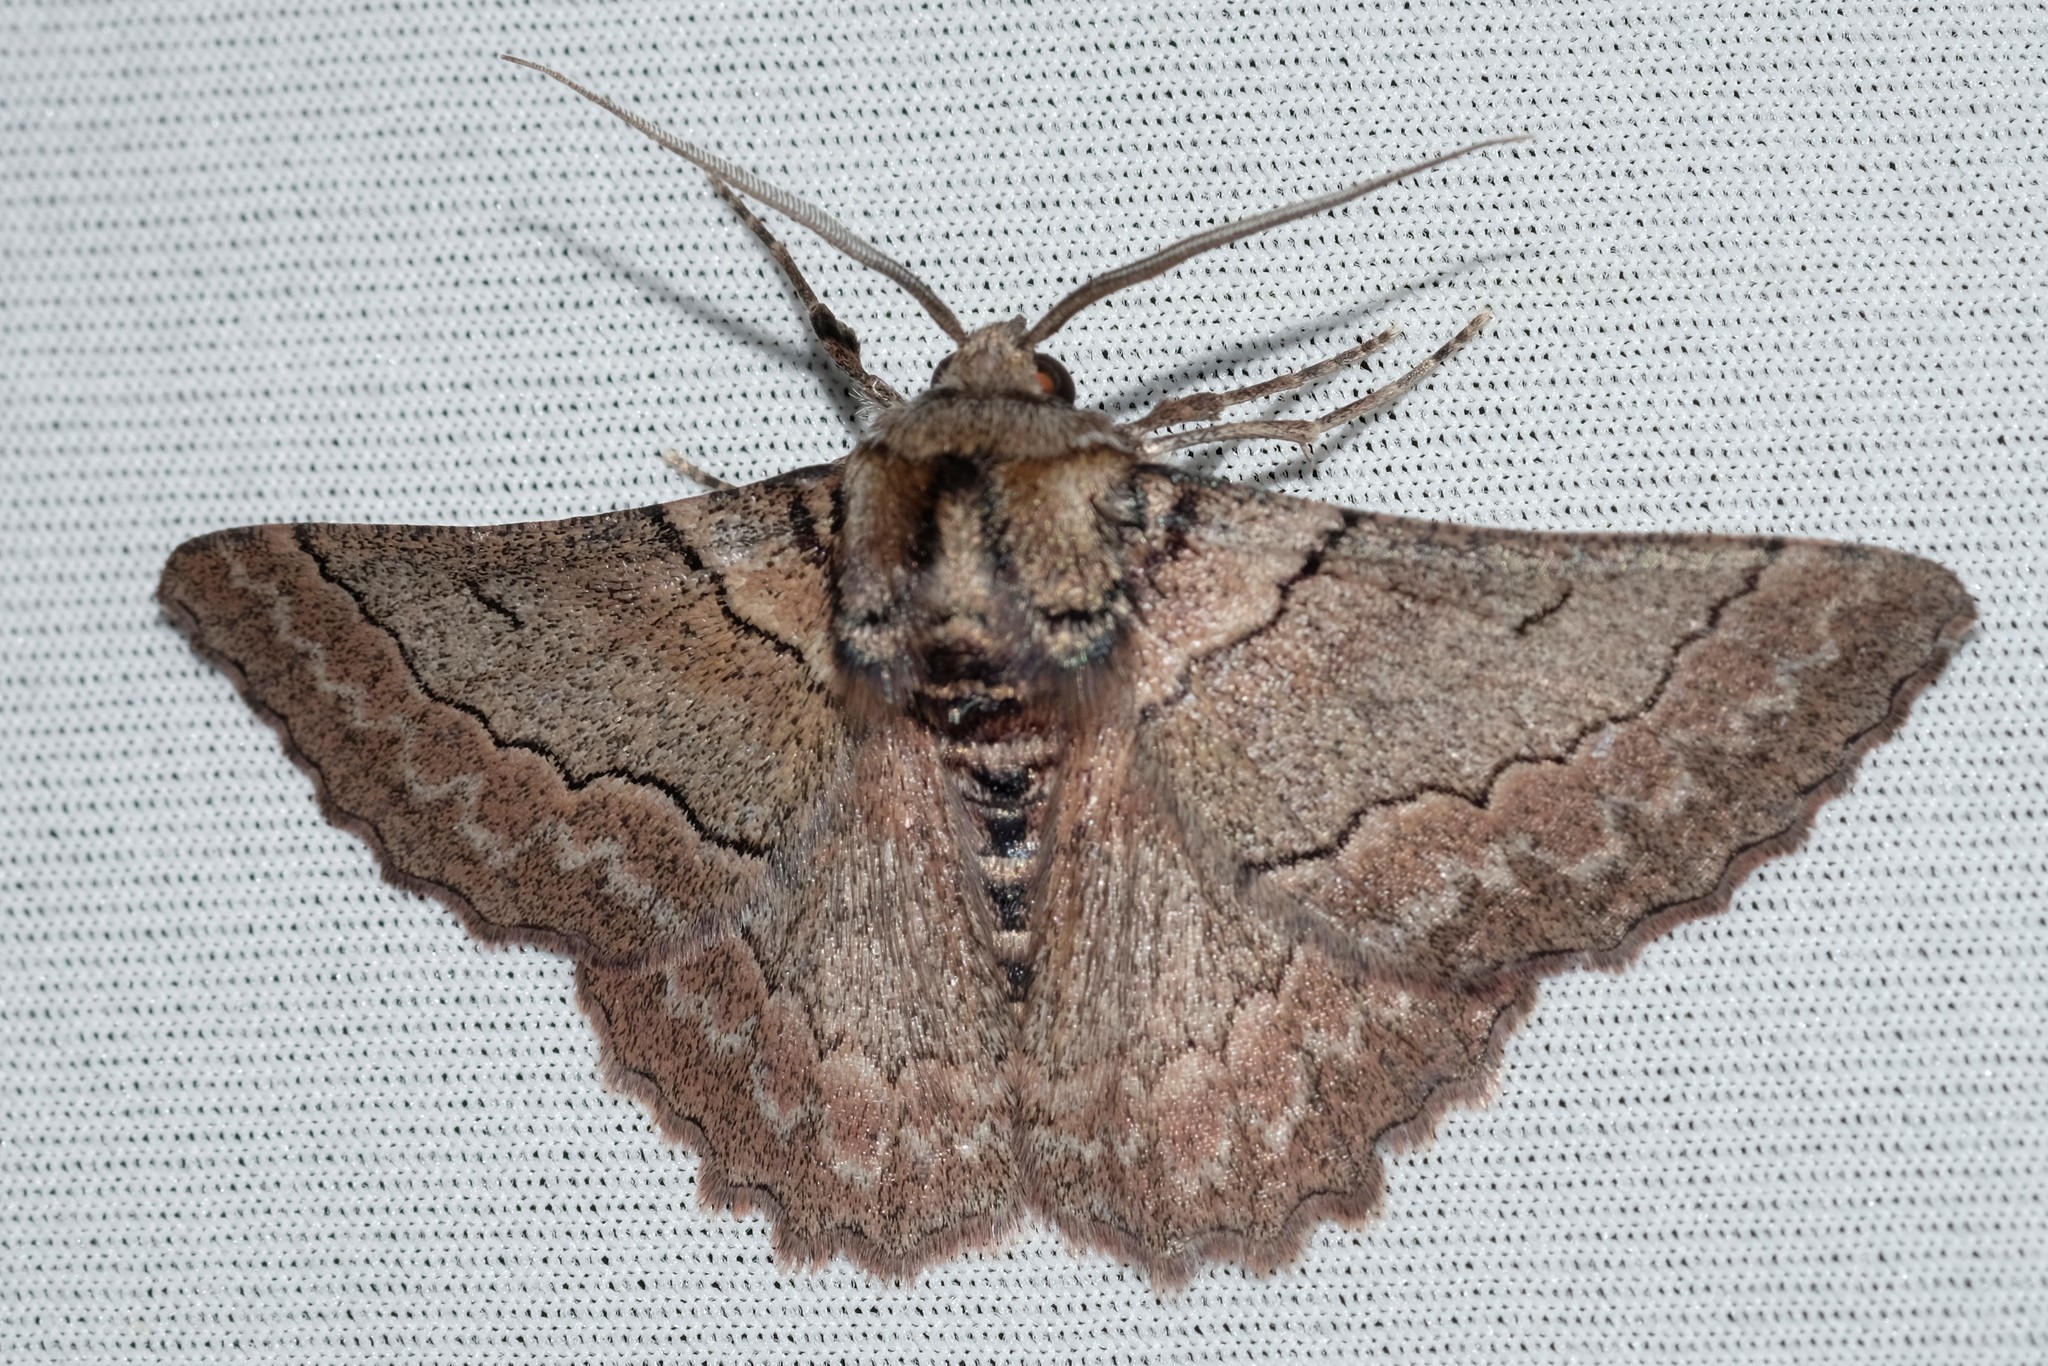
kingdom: Animalia
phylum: Arthropoda
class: Insecta
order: Lepidoptera
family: Geometridae
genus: Hypobapta
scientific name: Hypobapta tachyhalotaria
